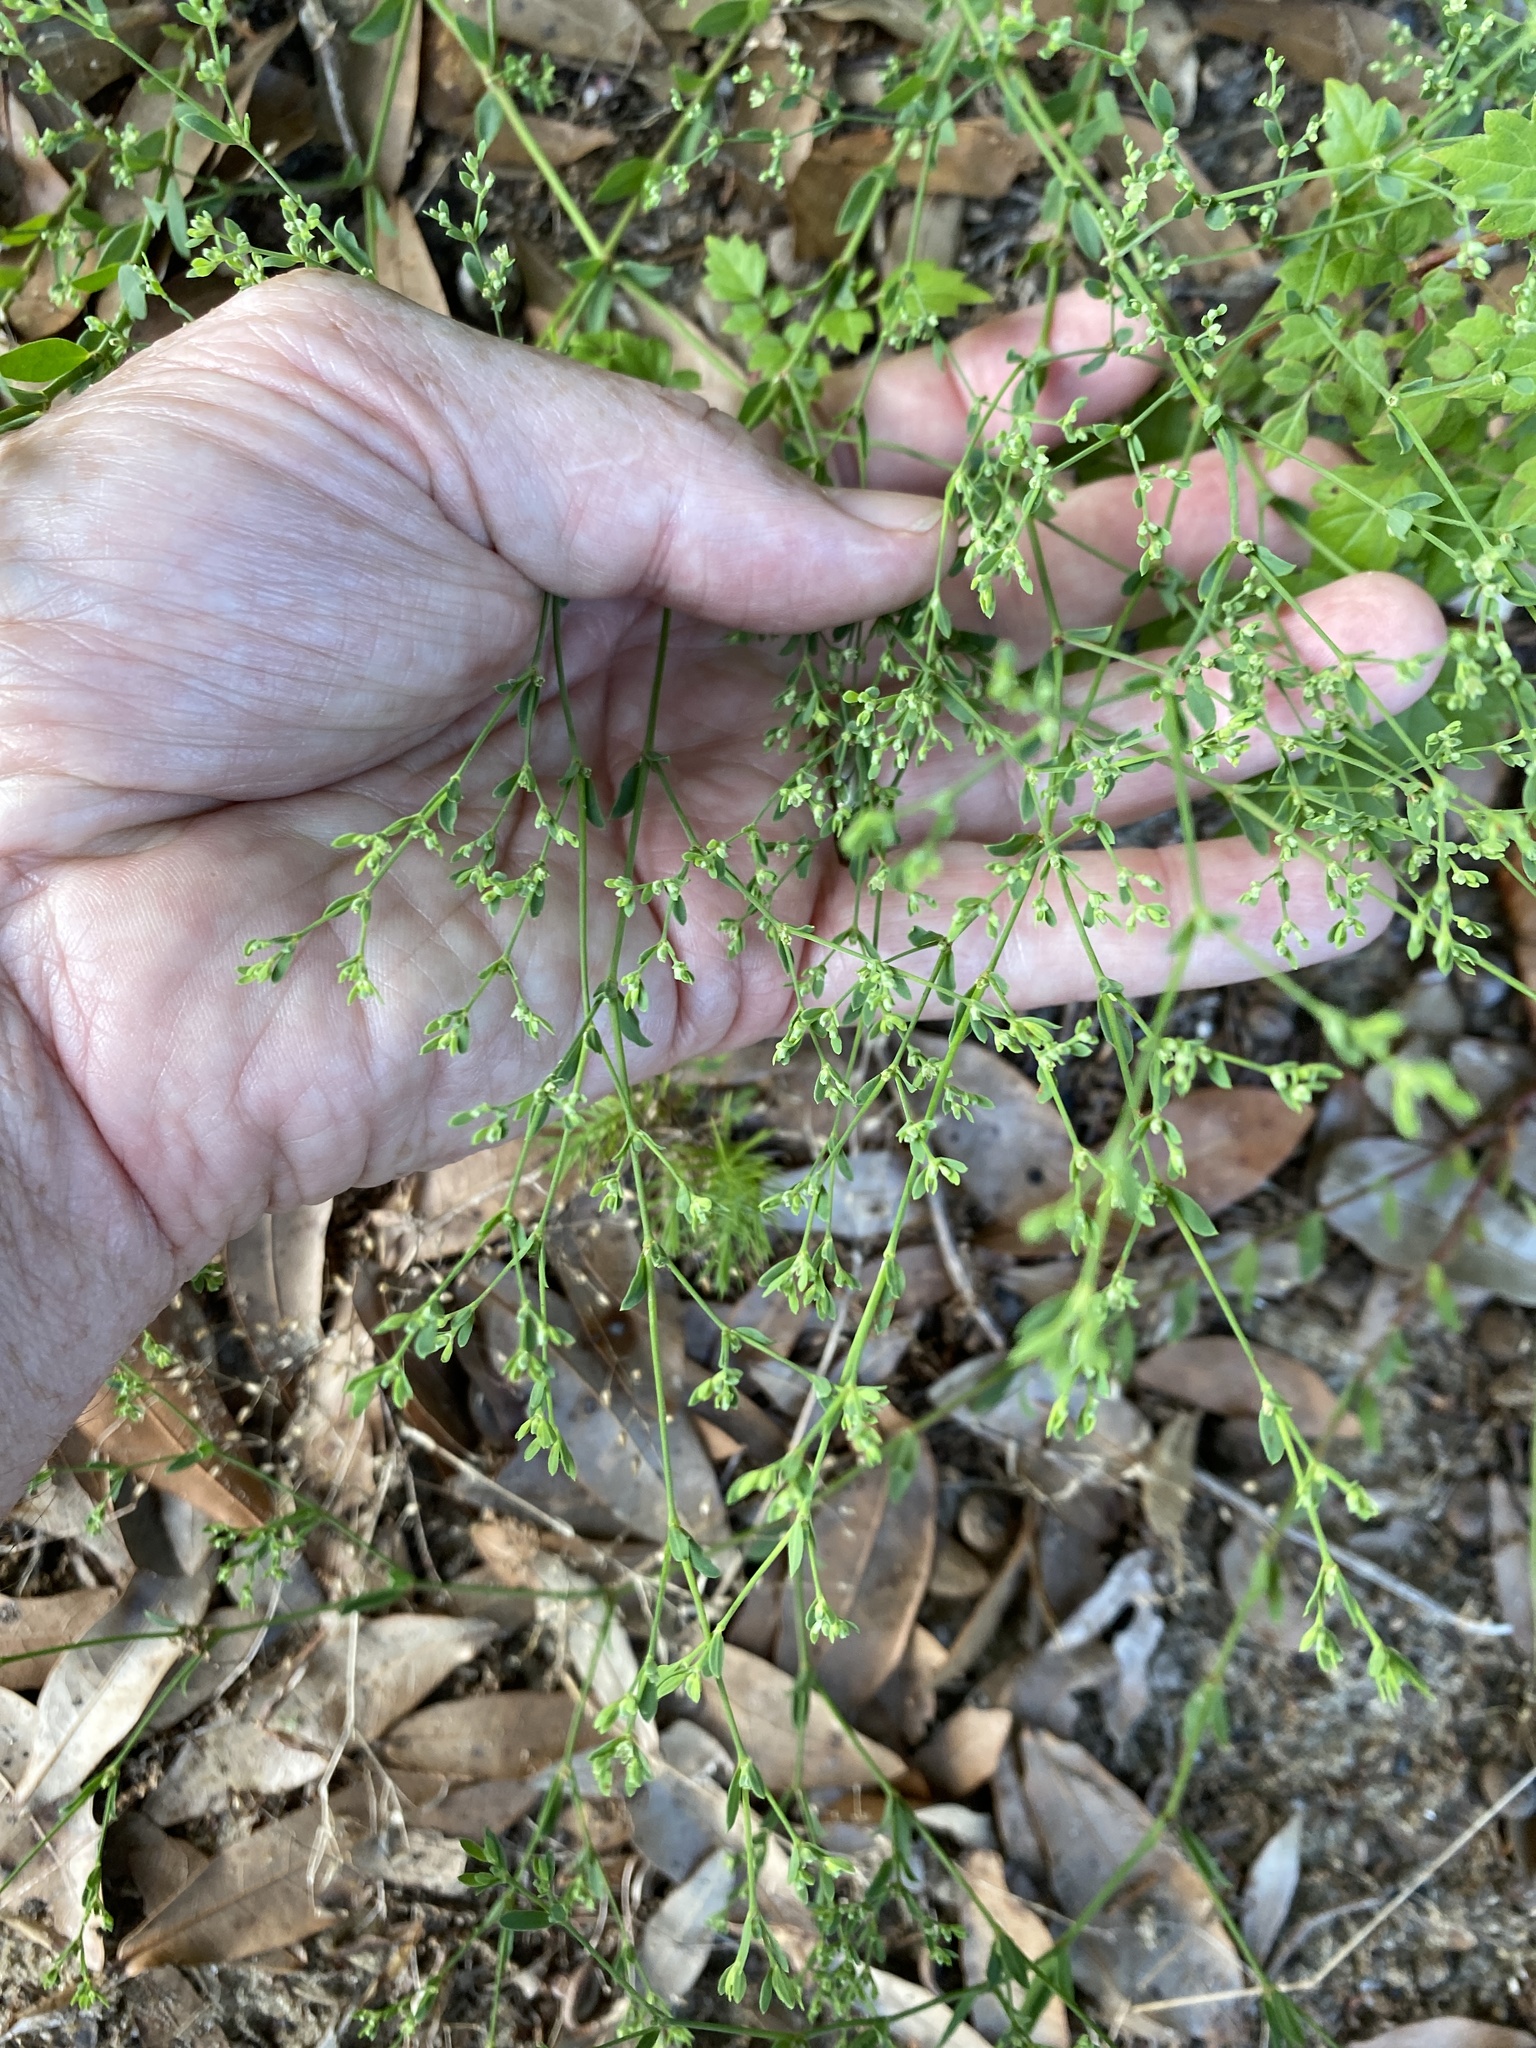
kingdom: Plantae
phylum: Tracheophyta
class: Magnoliopsida
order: Caryophyllales
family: Caryophyllaceae
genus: Paronychia
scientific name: Paronychia baldwinii
